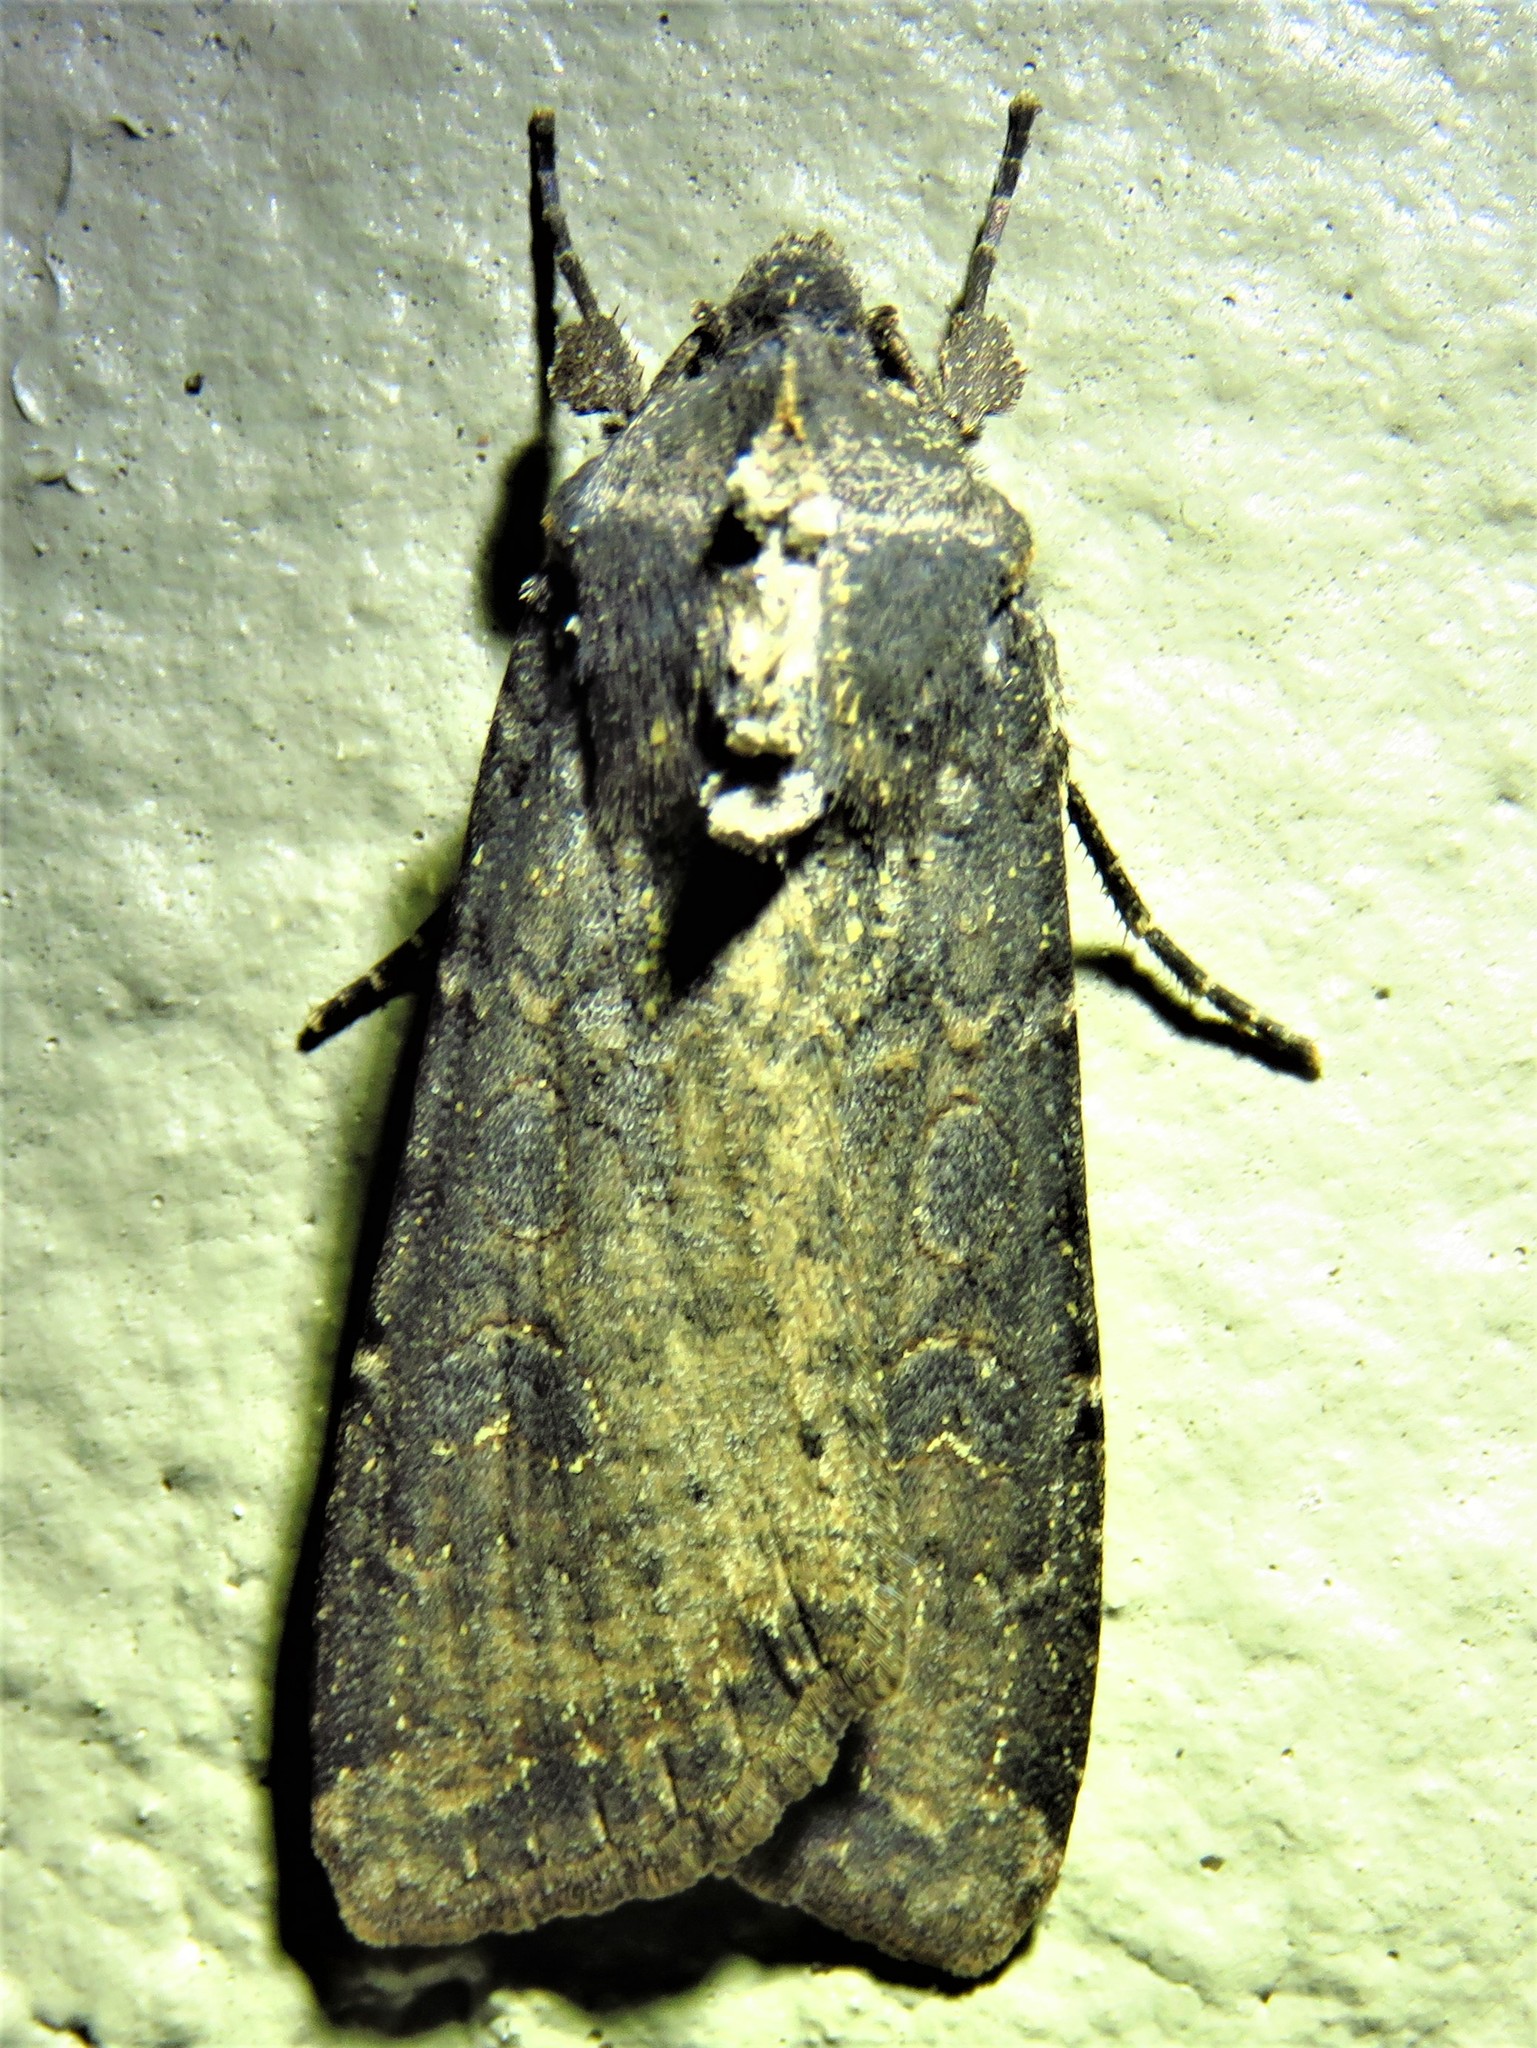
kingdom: Animalia
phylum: Arthropoda
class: Insecta
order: Lepidoptera
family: Noctuidae
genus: Peridroma
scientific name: Peridroma saucia
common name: Pearly underwing
